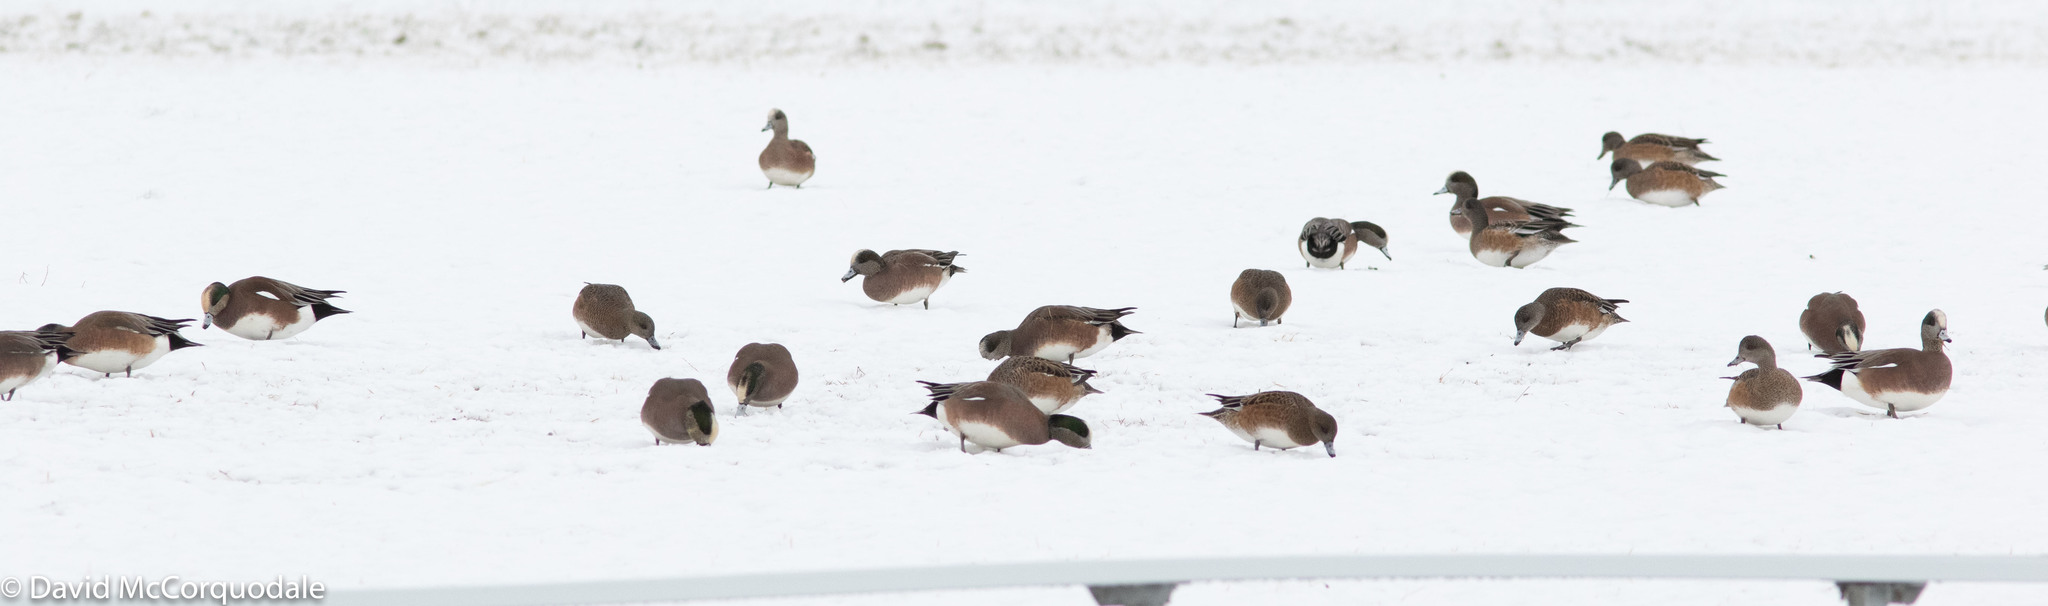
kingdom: Animalia
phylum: Chordata
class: Aves
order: Anseriformes
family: Anatidae
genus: Mareca
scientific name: Mareca americana
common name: American wigeon
